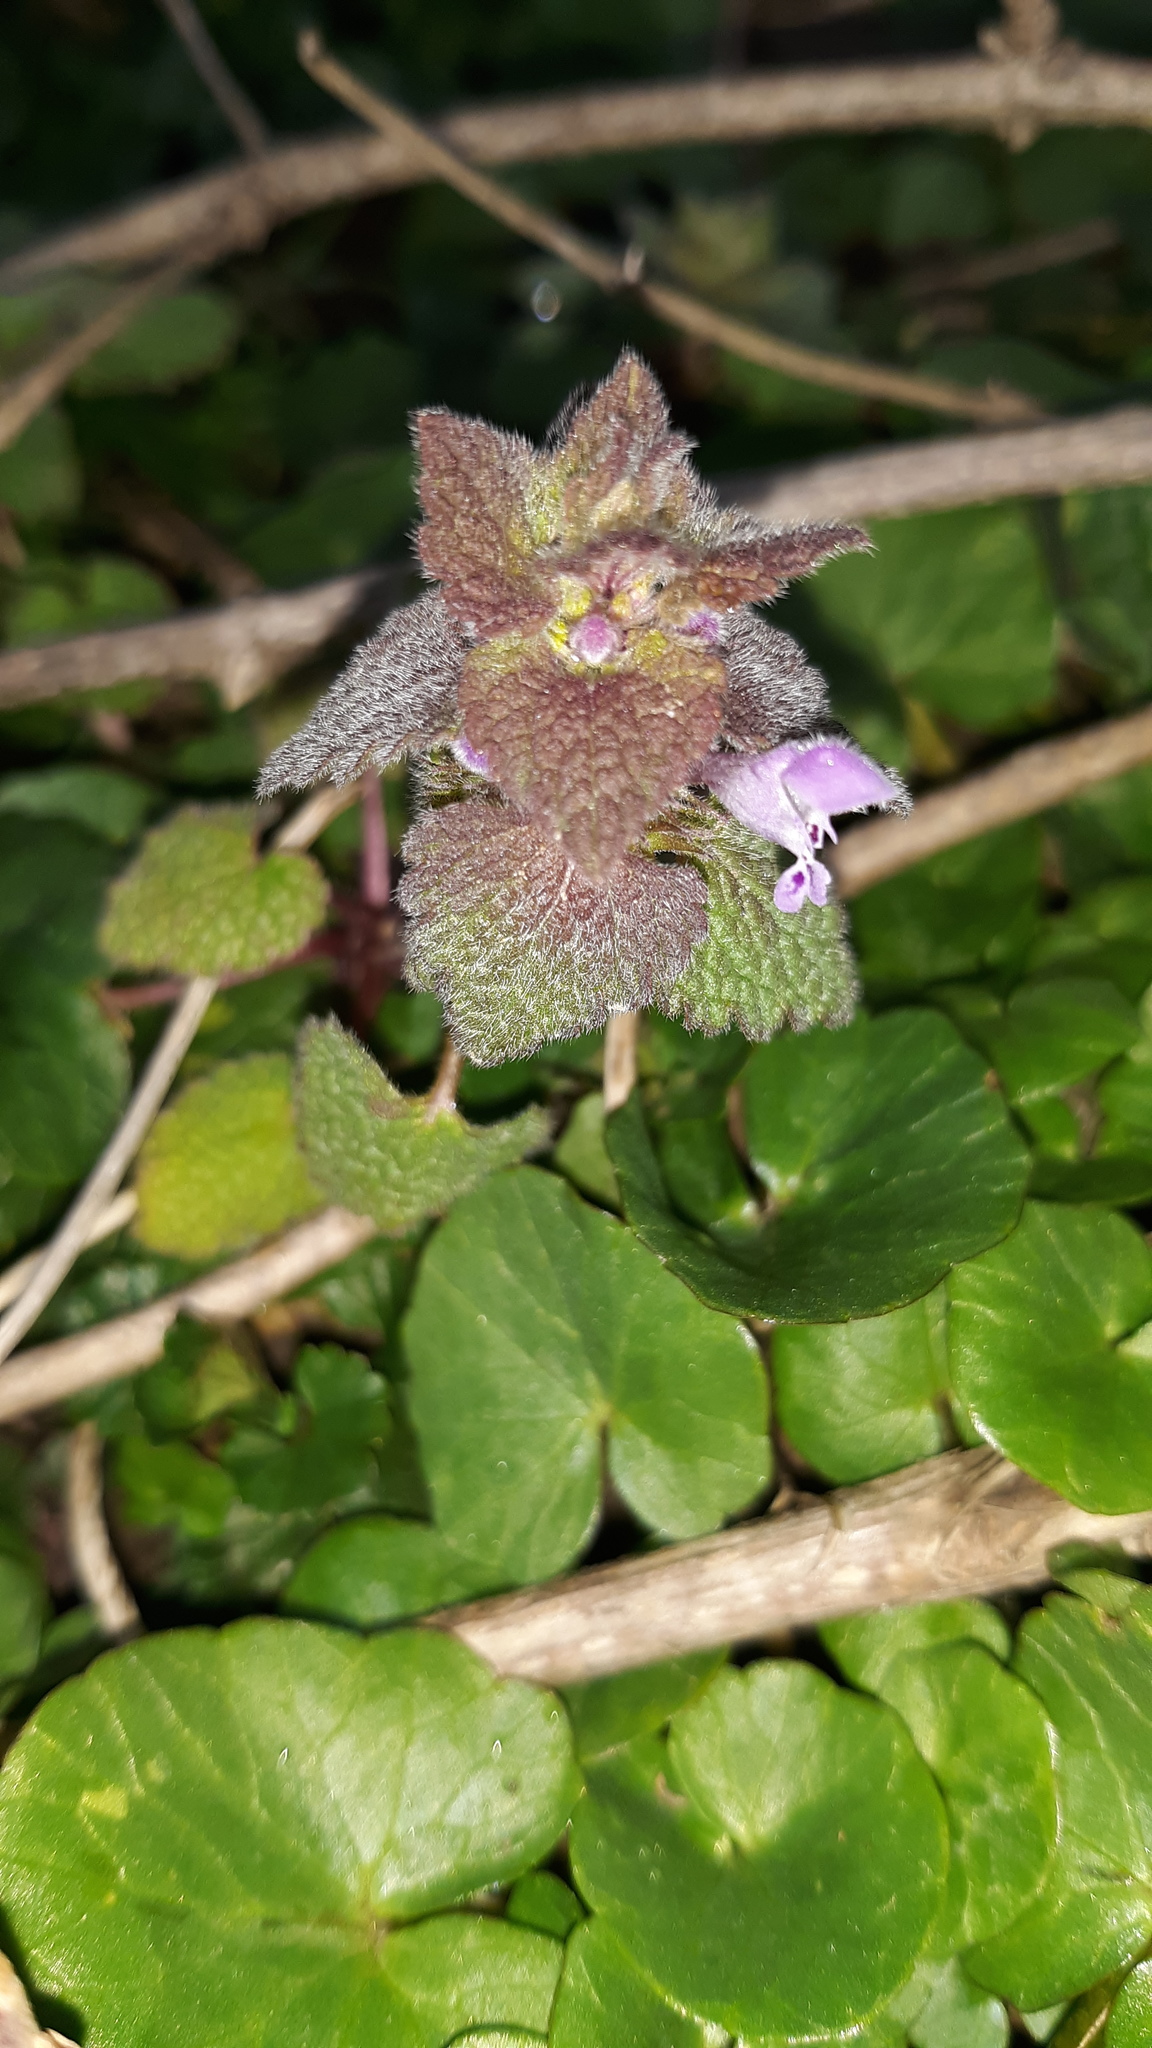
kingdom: Plantae
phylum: Tracheophyta
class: Magnoliopsida
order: Lamiales
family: Lamiaceae
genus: Lamium
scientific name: Lamium purpureum
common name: Red dead-nettle
